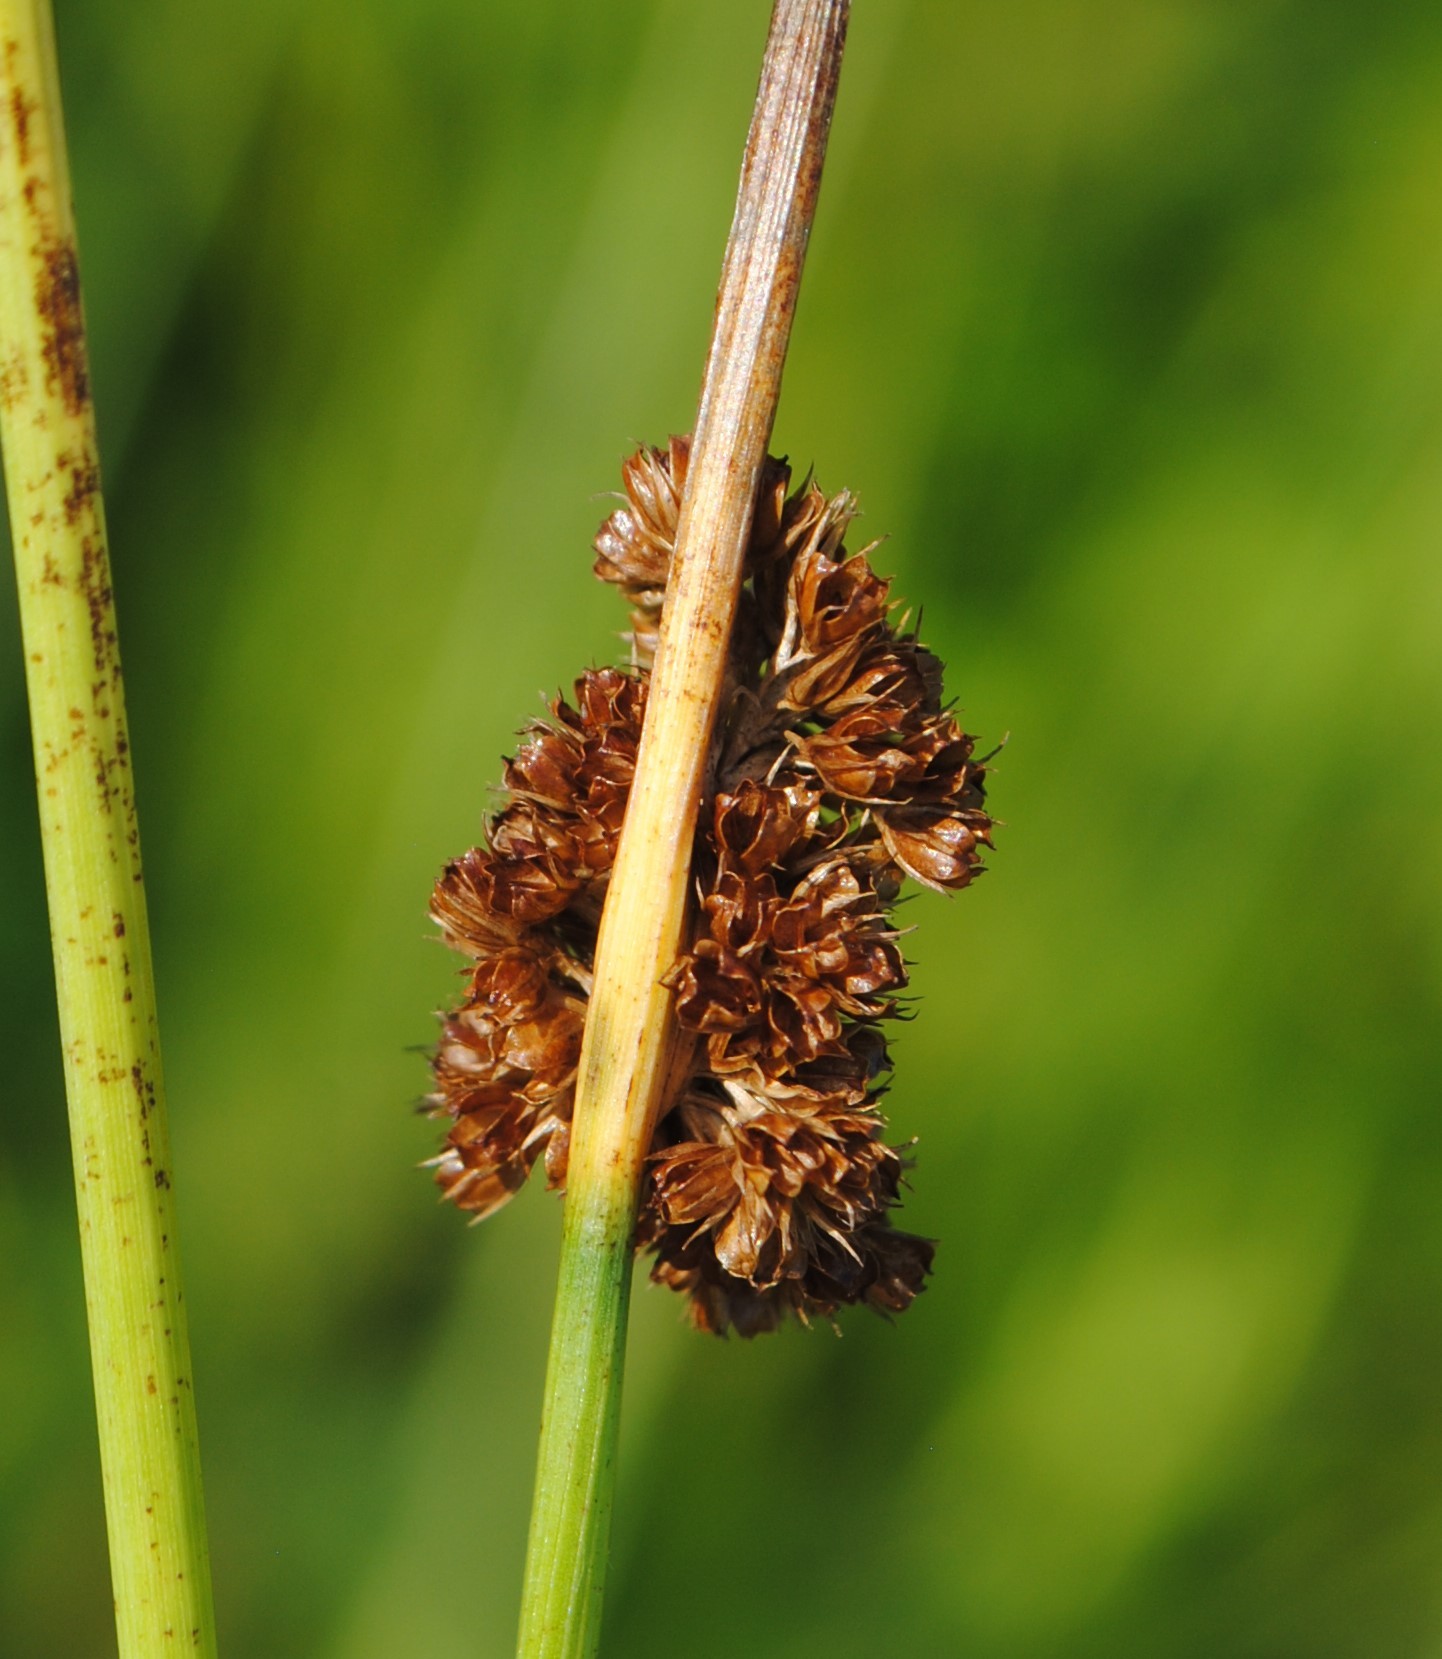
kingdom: Plantae
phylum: Tracheophyta
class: Liliopsida
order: Poales
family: Juncaceae
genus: Juncus
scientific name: Juncus conglomeratus
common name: Compact rush
